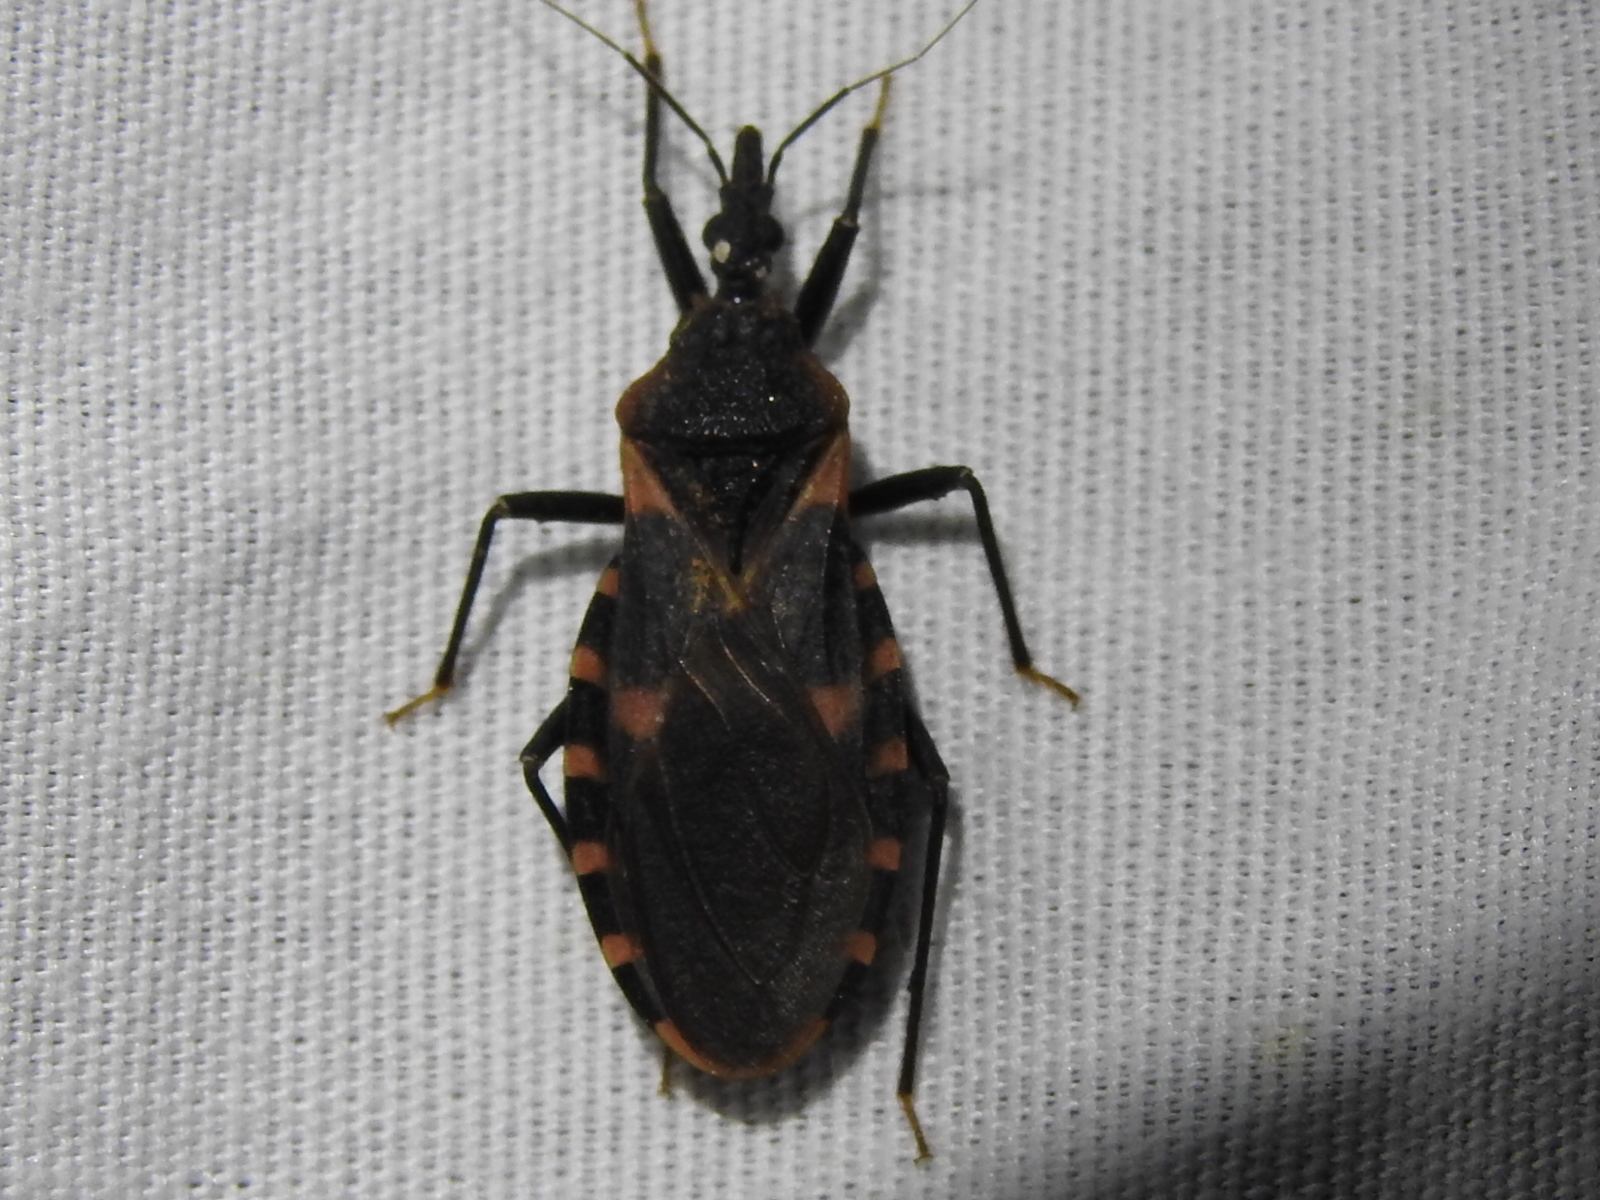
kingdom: Animalia
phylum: Arthropoda
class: Insecta
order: Hemiptera
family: Reduviidae
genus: Triatoma
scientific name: Triatoma sanguisuga
